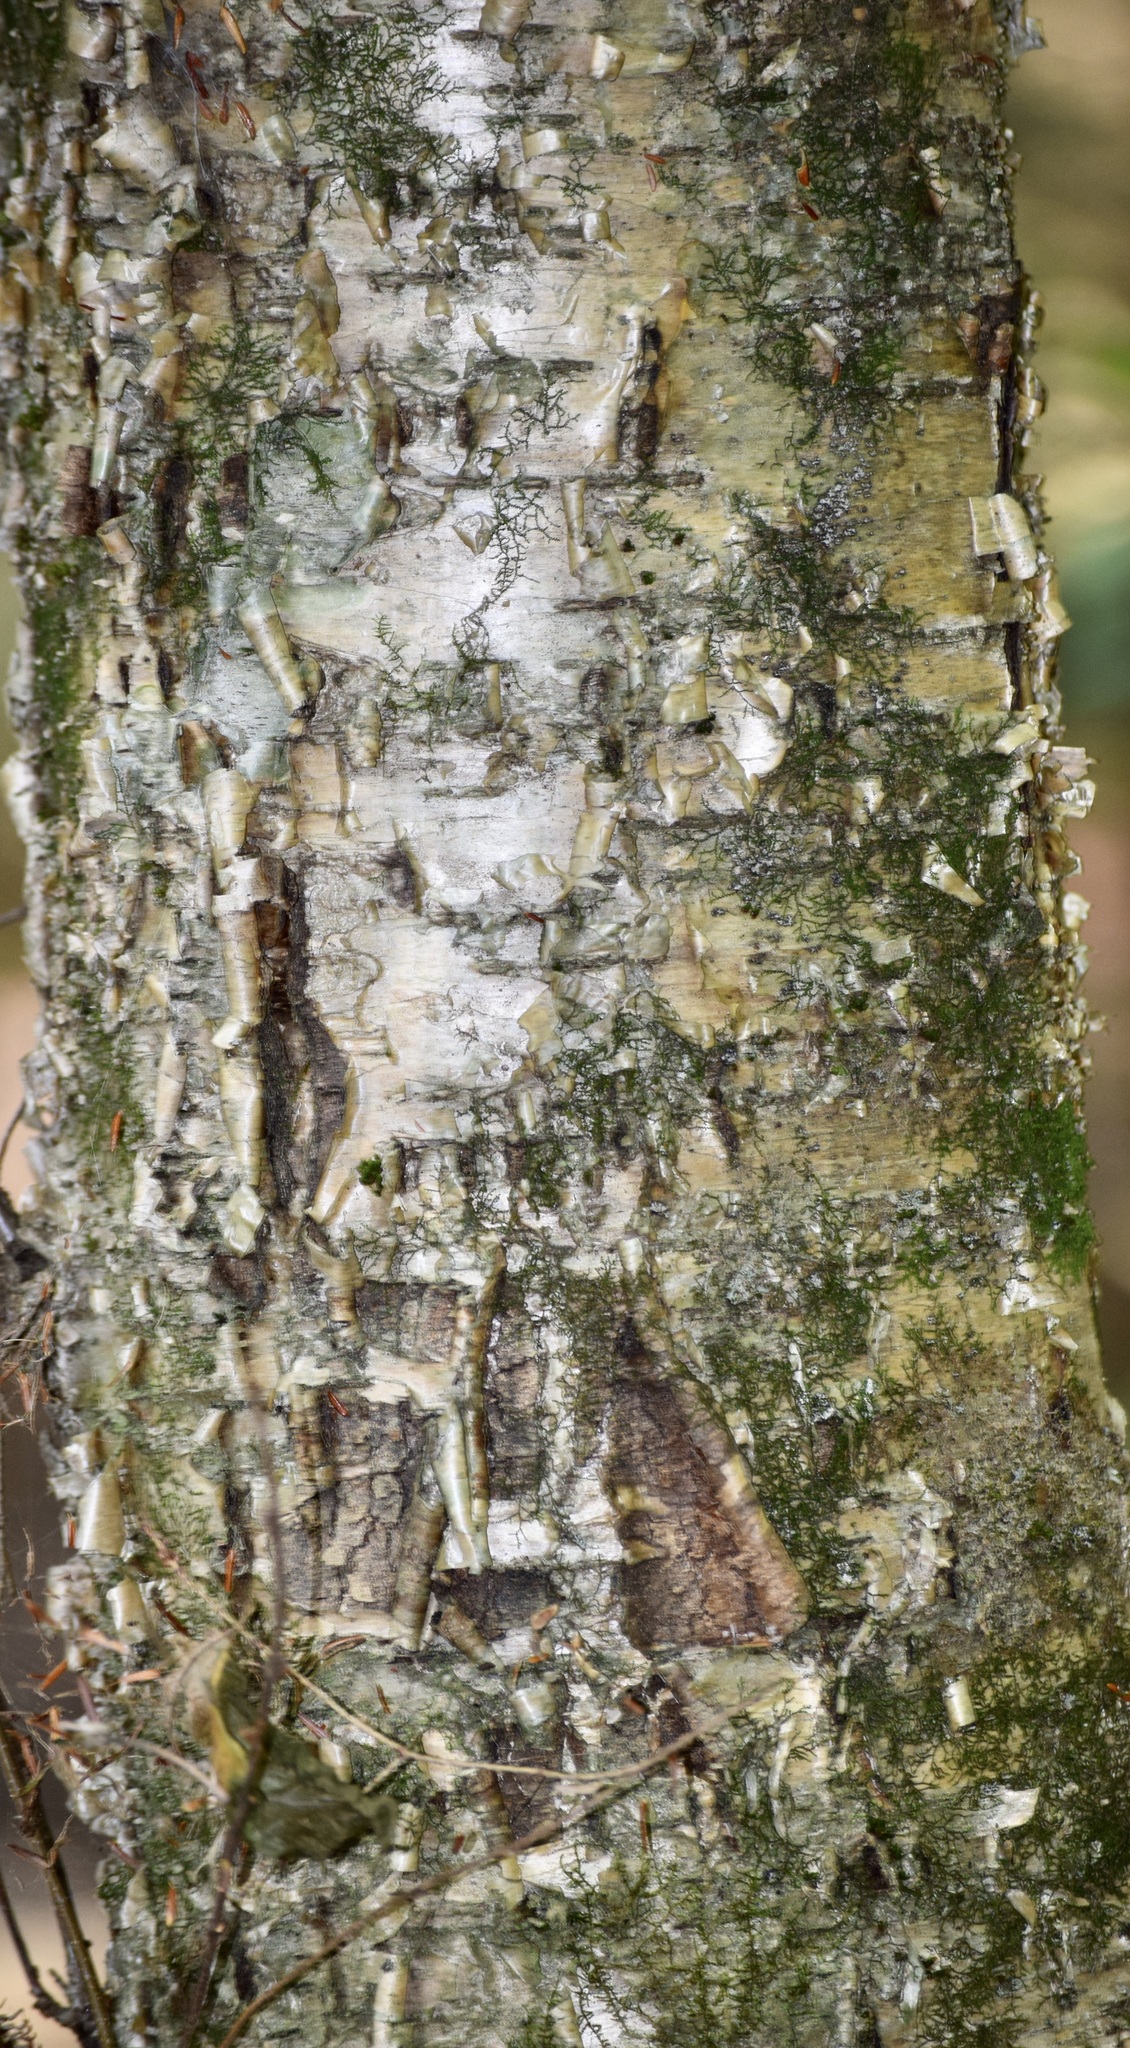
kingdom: Plantae
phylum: Tracheophyta
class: Magnoliopsida
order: Fagales
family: Betulaceae
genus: Betula
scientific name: Betula alleghaniensis
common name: Yellow birch
